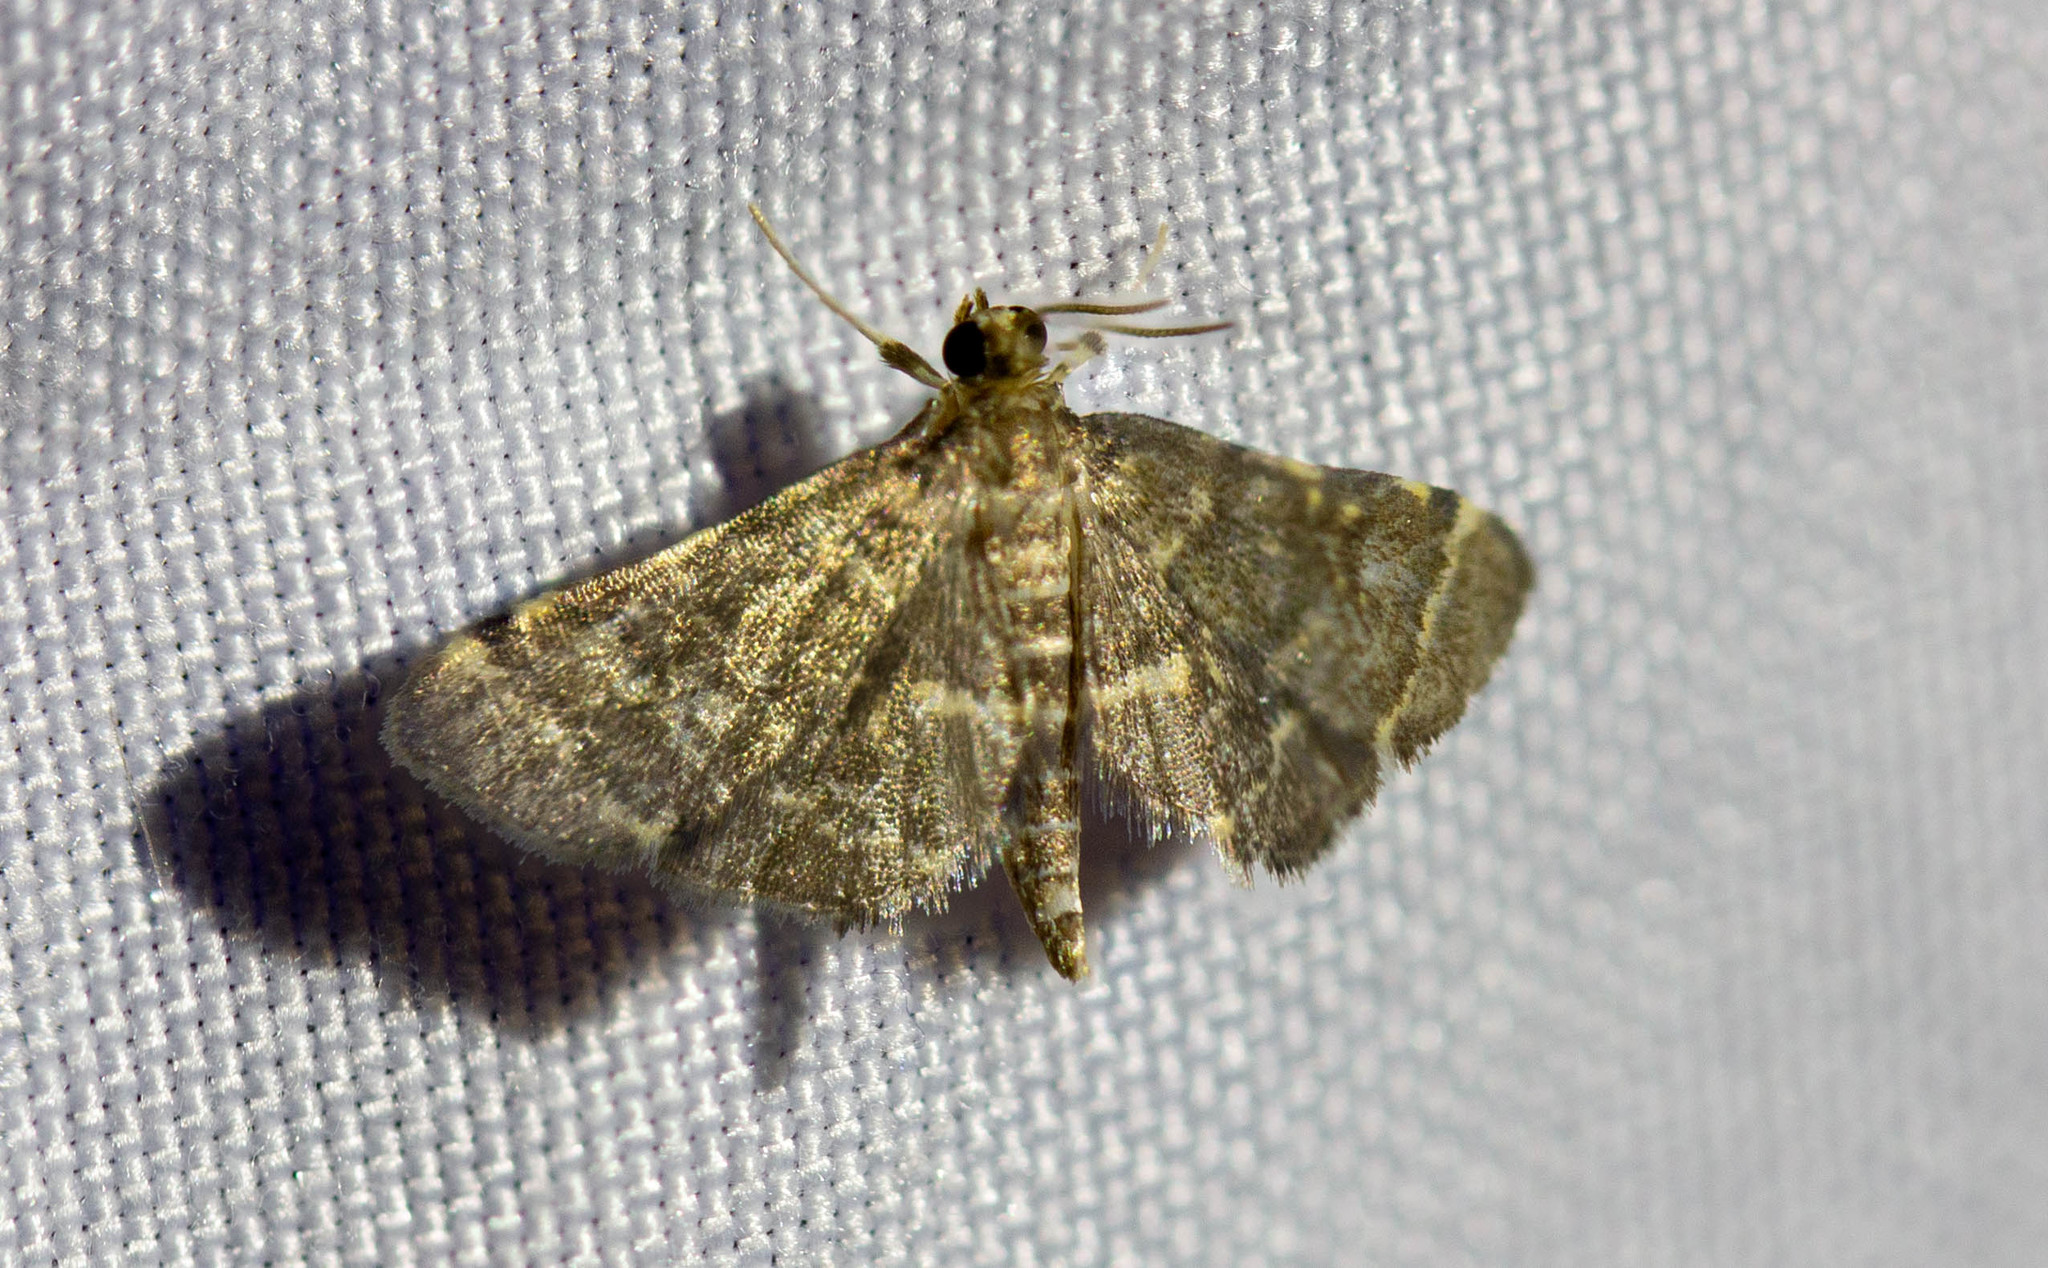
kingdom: Animalia
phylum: Arthropoda
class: Insecta
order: Lepidoptera
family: Crambidae
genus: Anageshna
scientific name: Anageshna primordialis
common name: Yellow-spotted webworm moth
